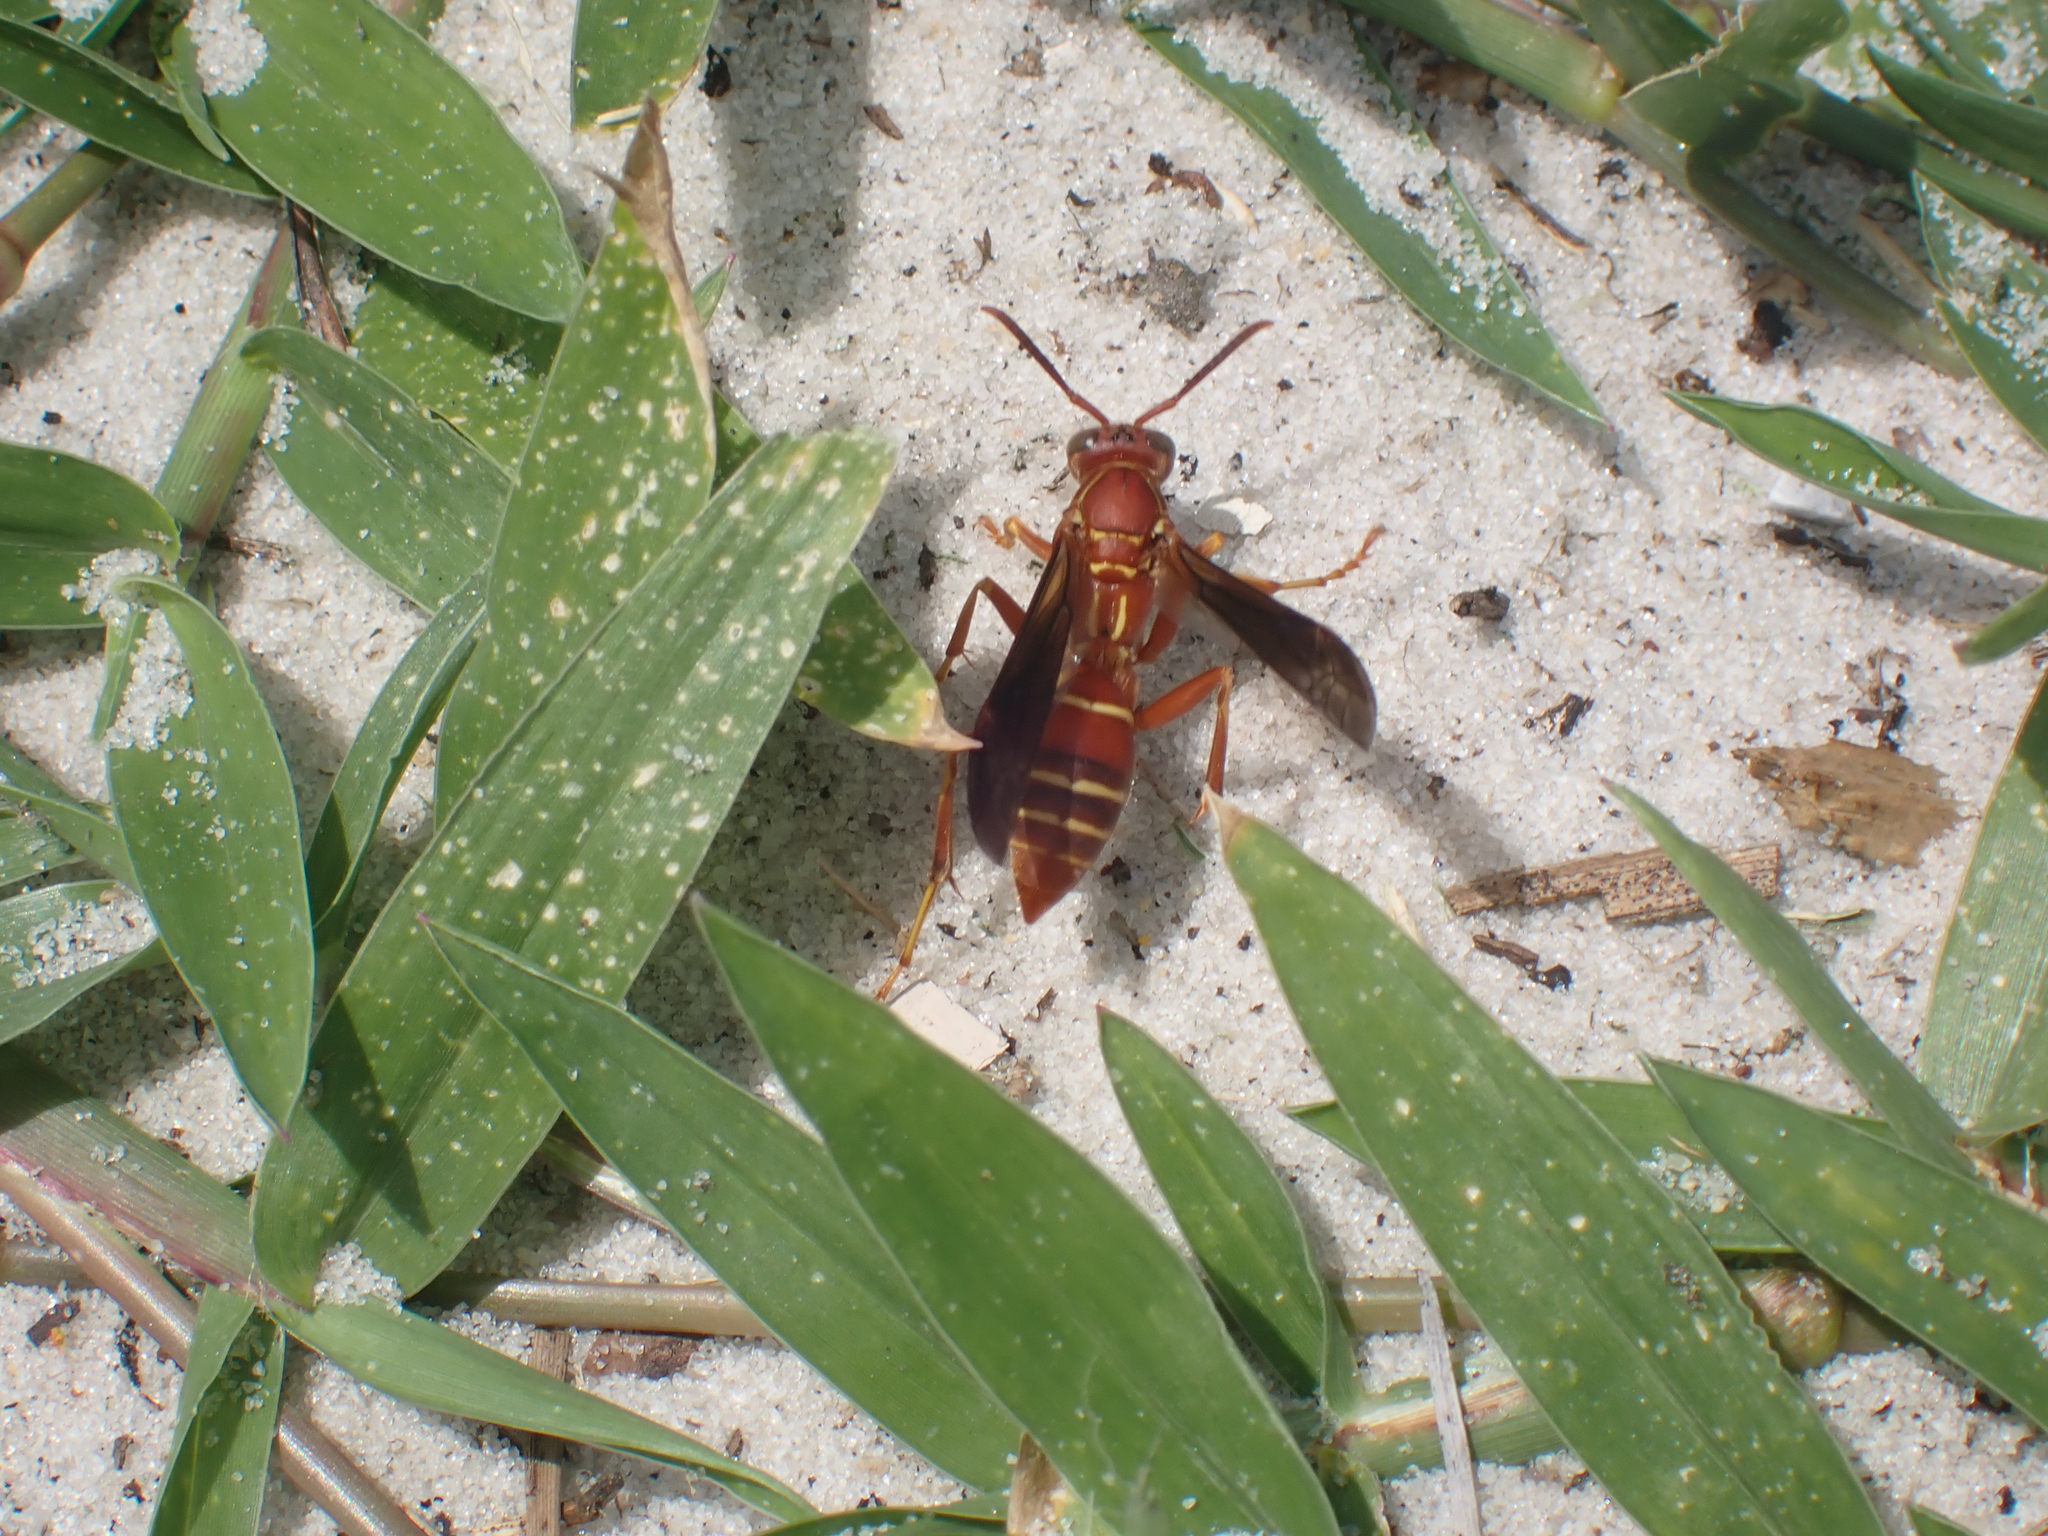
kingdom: Animalia
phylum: Arthropoda
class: Insecta
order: Hymenoptera
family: Eumenidae
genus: Polistes
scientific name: Polistes bellicosus
